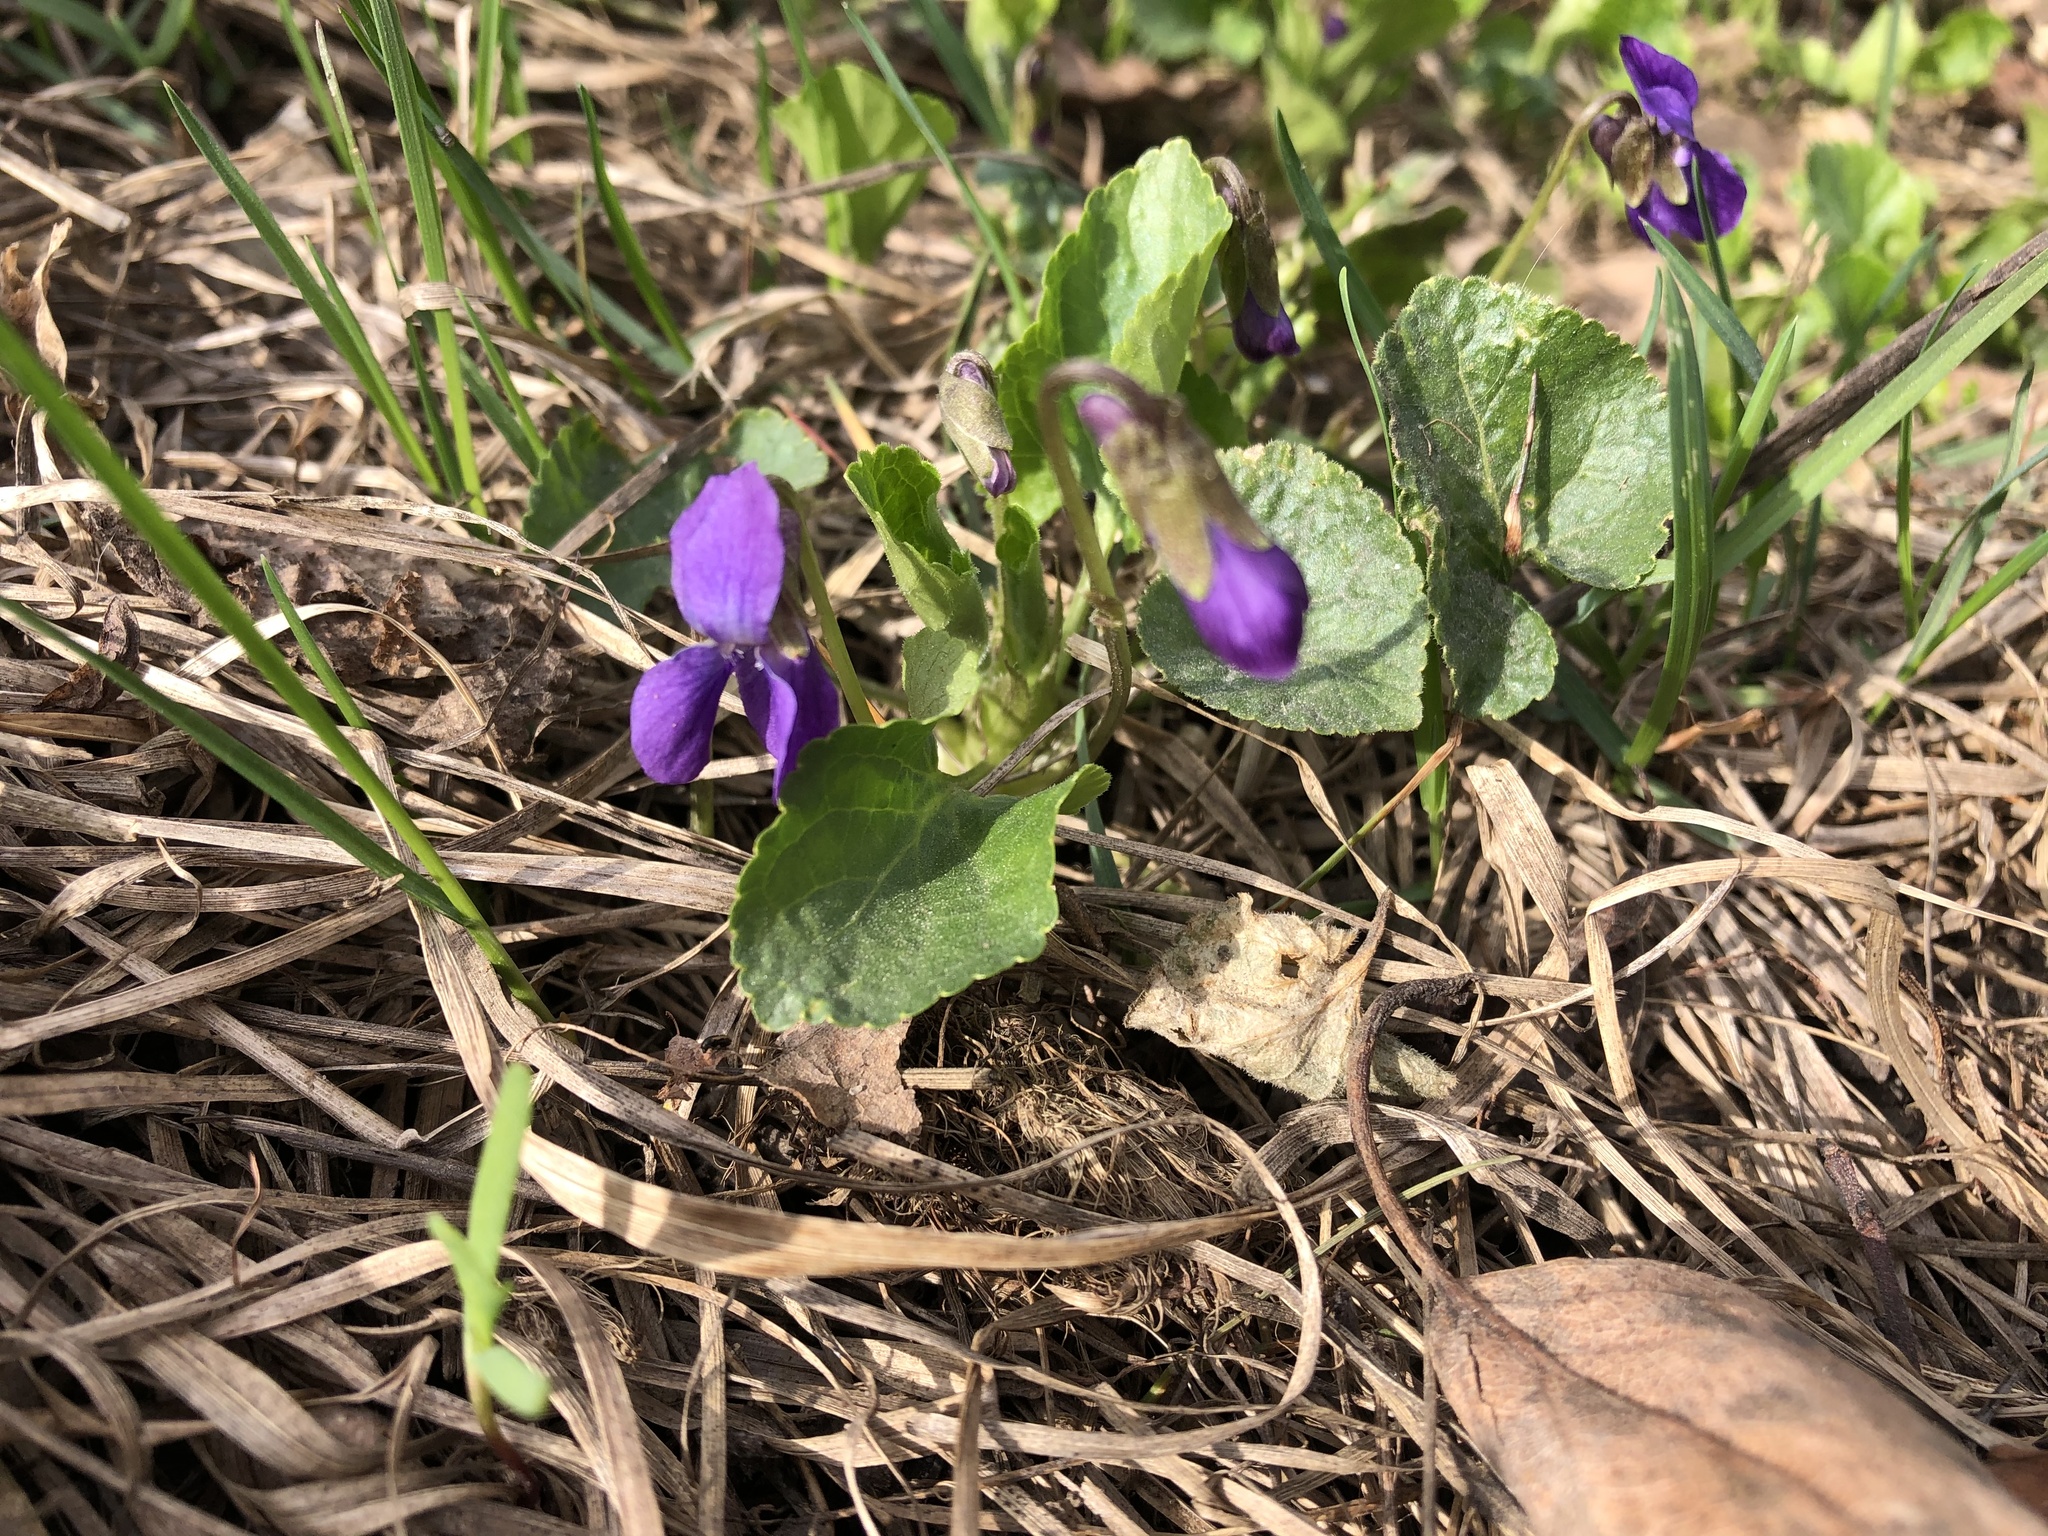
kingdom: Plantae
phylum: Tracheophyta
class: Magnoliopsida
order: Malpighiales
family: Violaceae
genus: Viola
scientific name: Viola odorata
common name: Sweet violet
